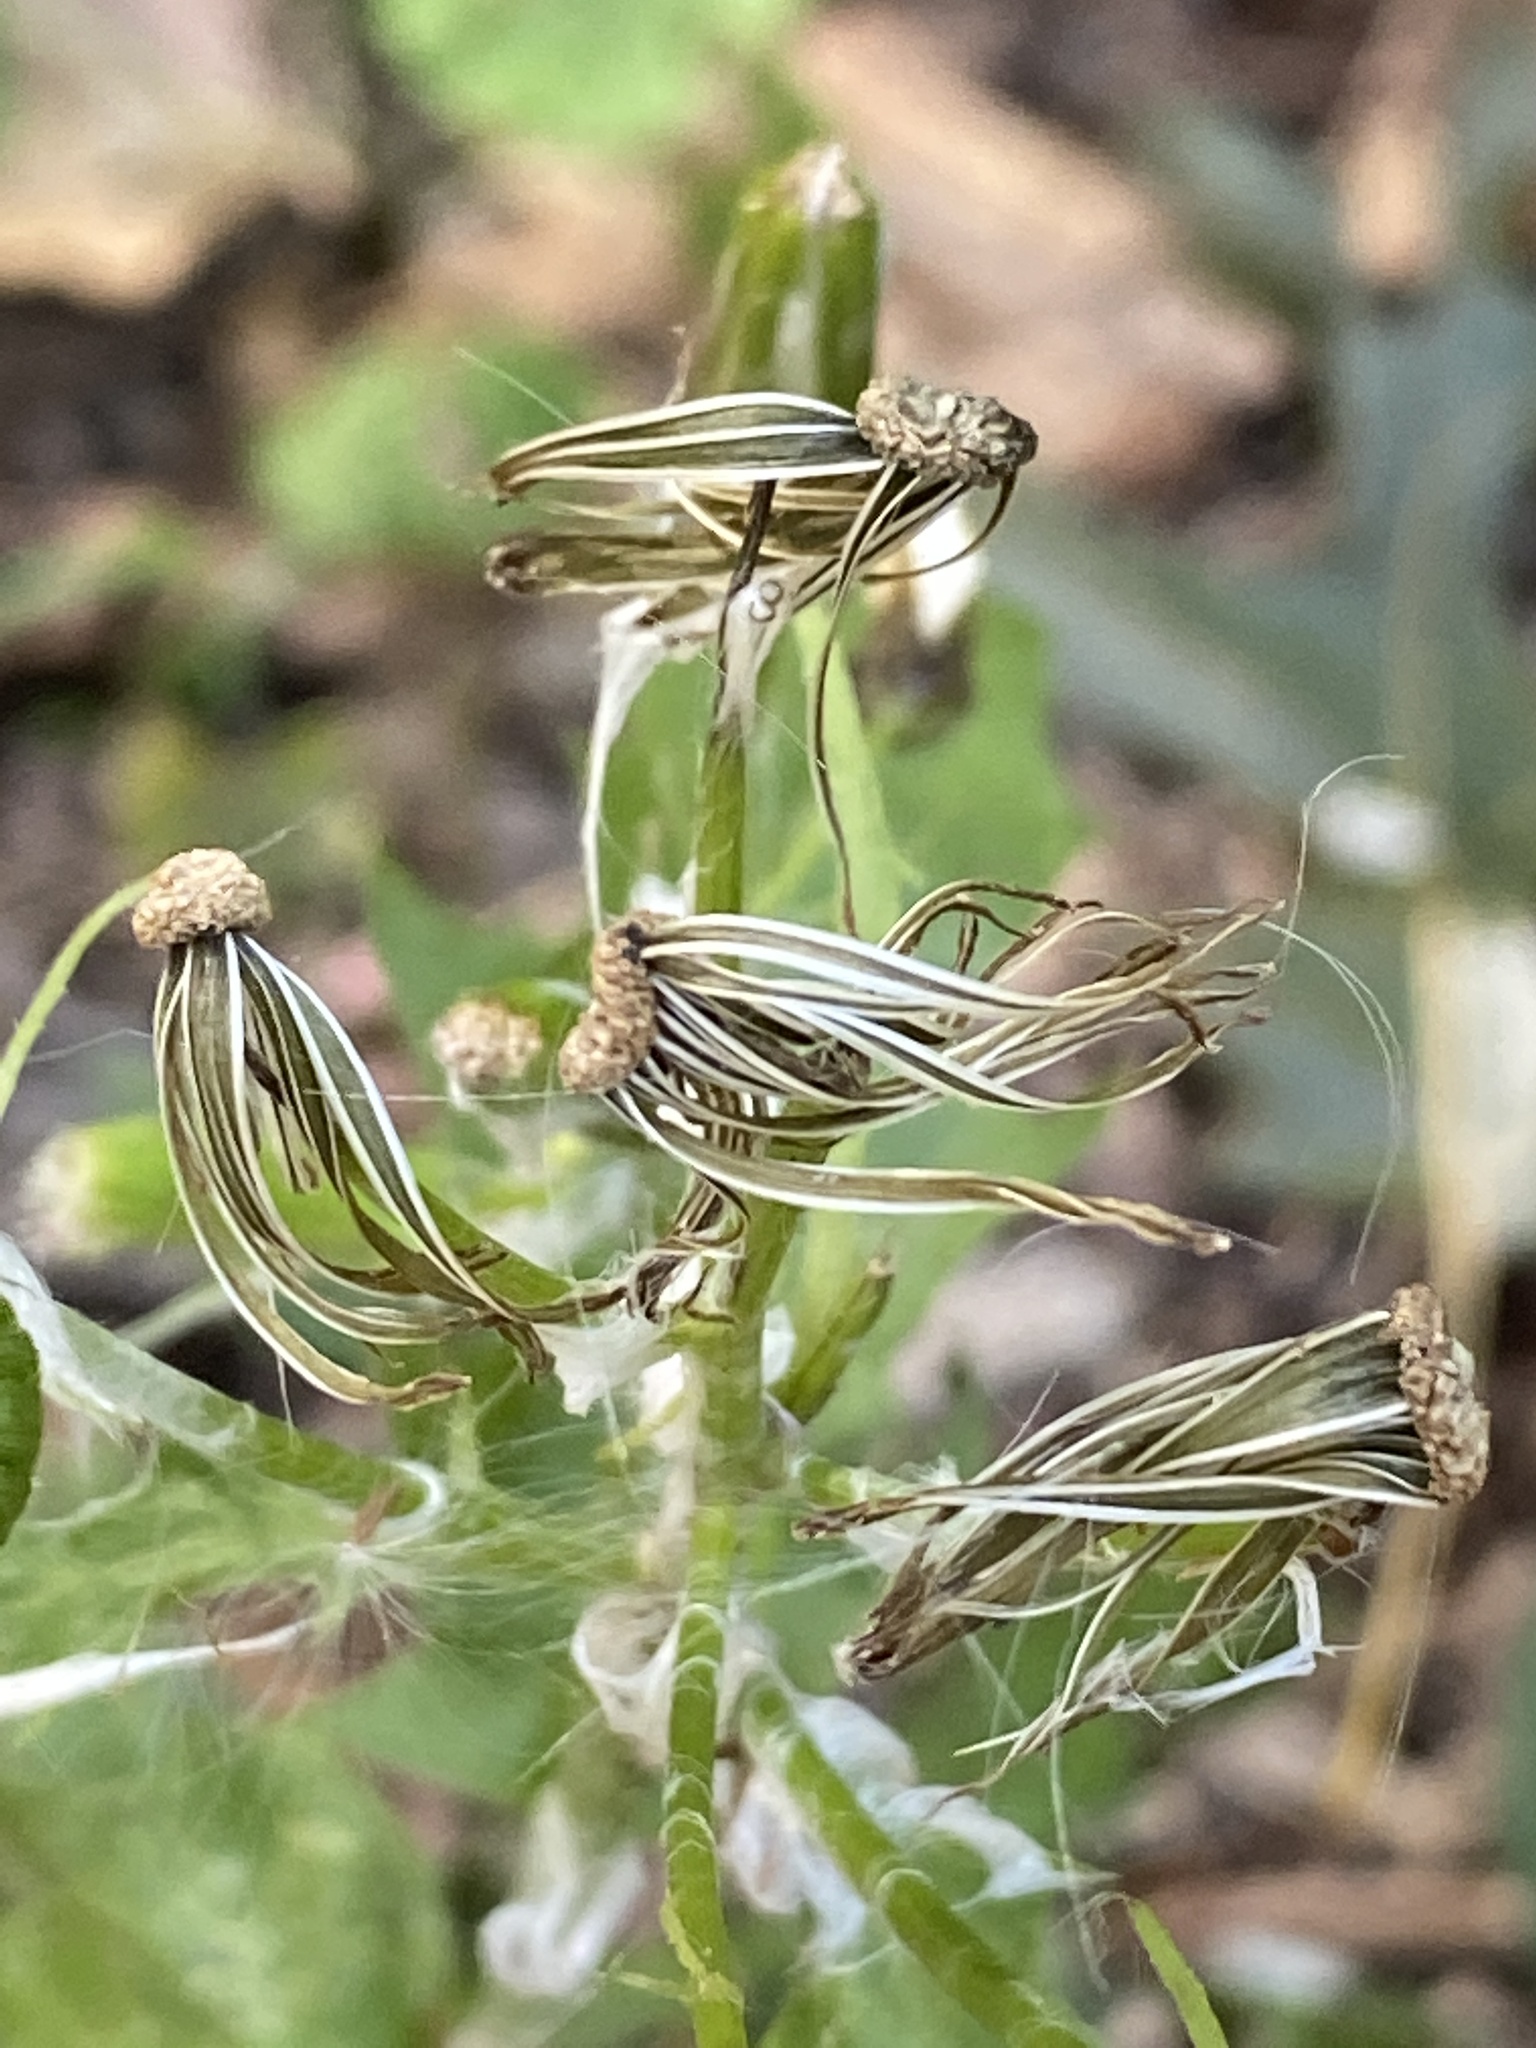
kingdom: Plantae
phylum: Tracheophyta
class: Magnoliopsida
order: Asterales
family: Asteraceae
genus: Erechtites
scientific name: Erechtites hieraciifolius
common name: American burnweed
